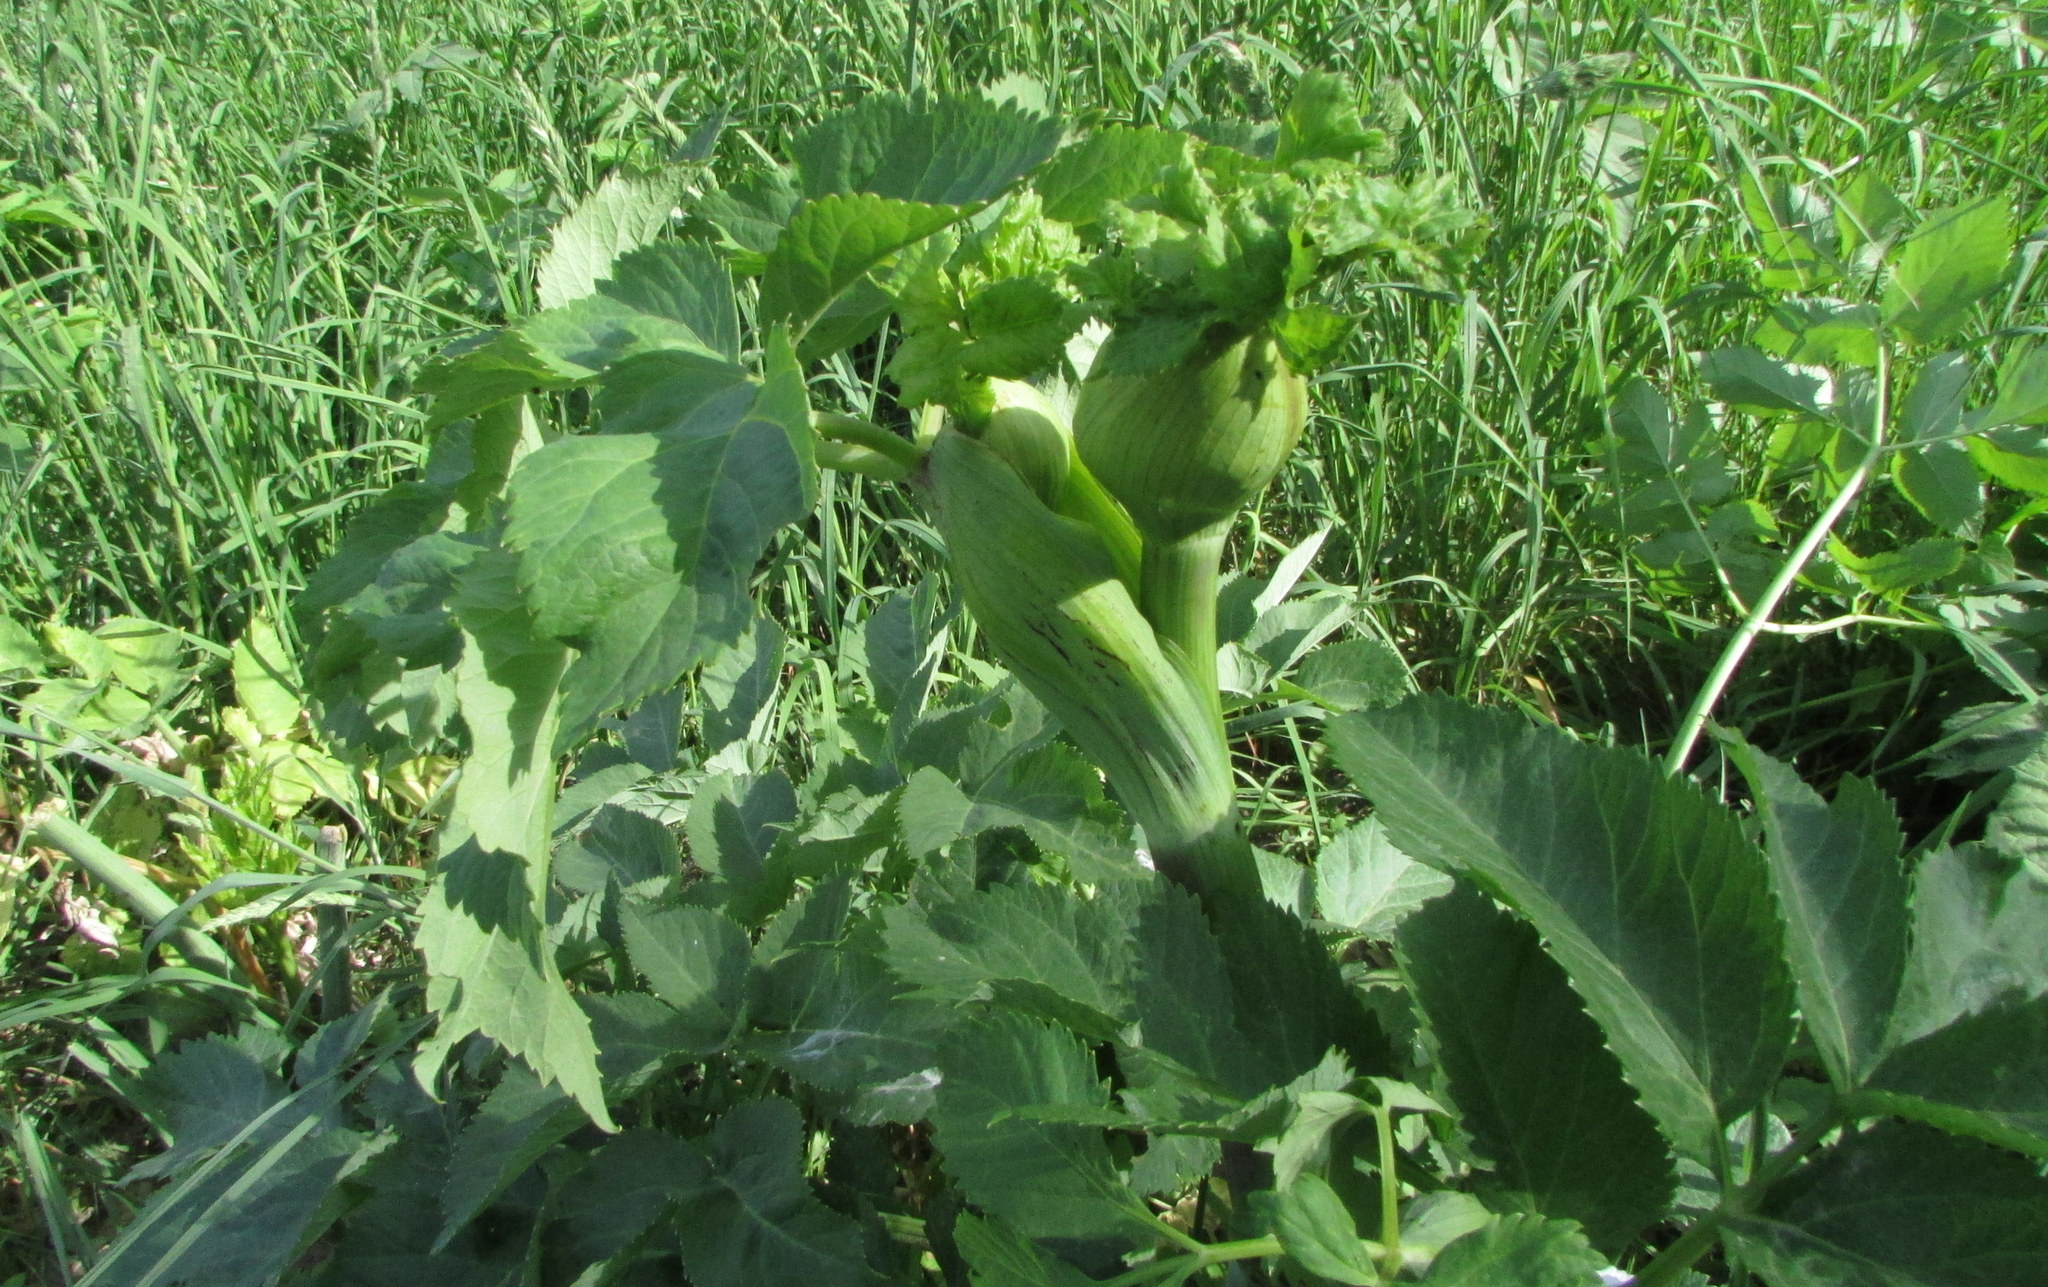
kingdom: Plantae
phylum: Tracheophyta
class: Magnoliopsida
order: Apiales
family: Apiaceae
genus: Angelica
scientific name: Angelica archangelica
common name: Garden angelica
